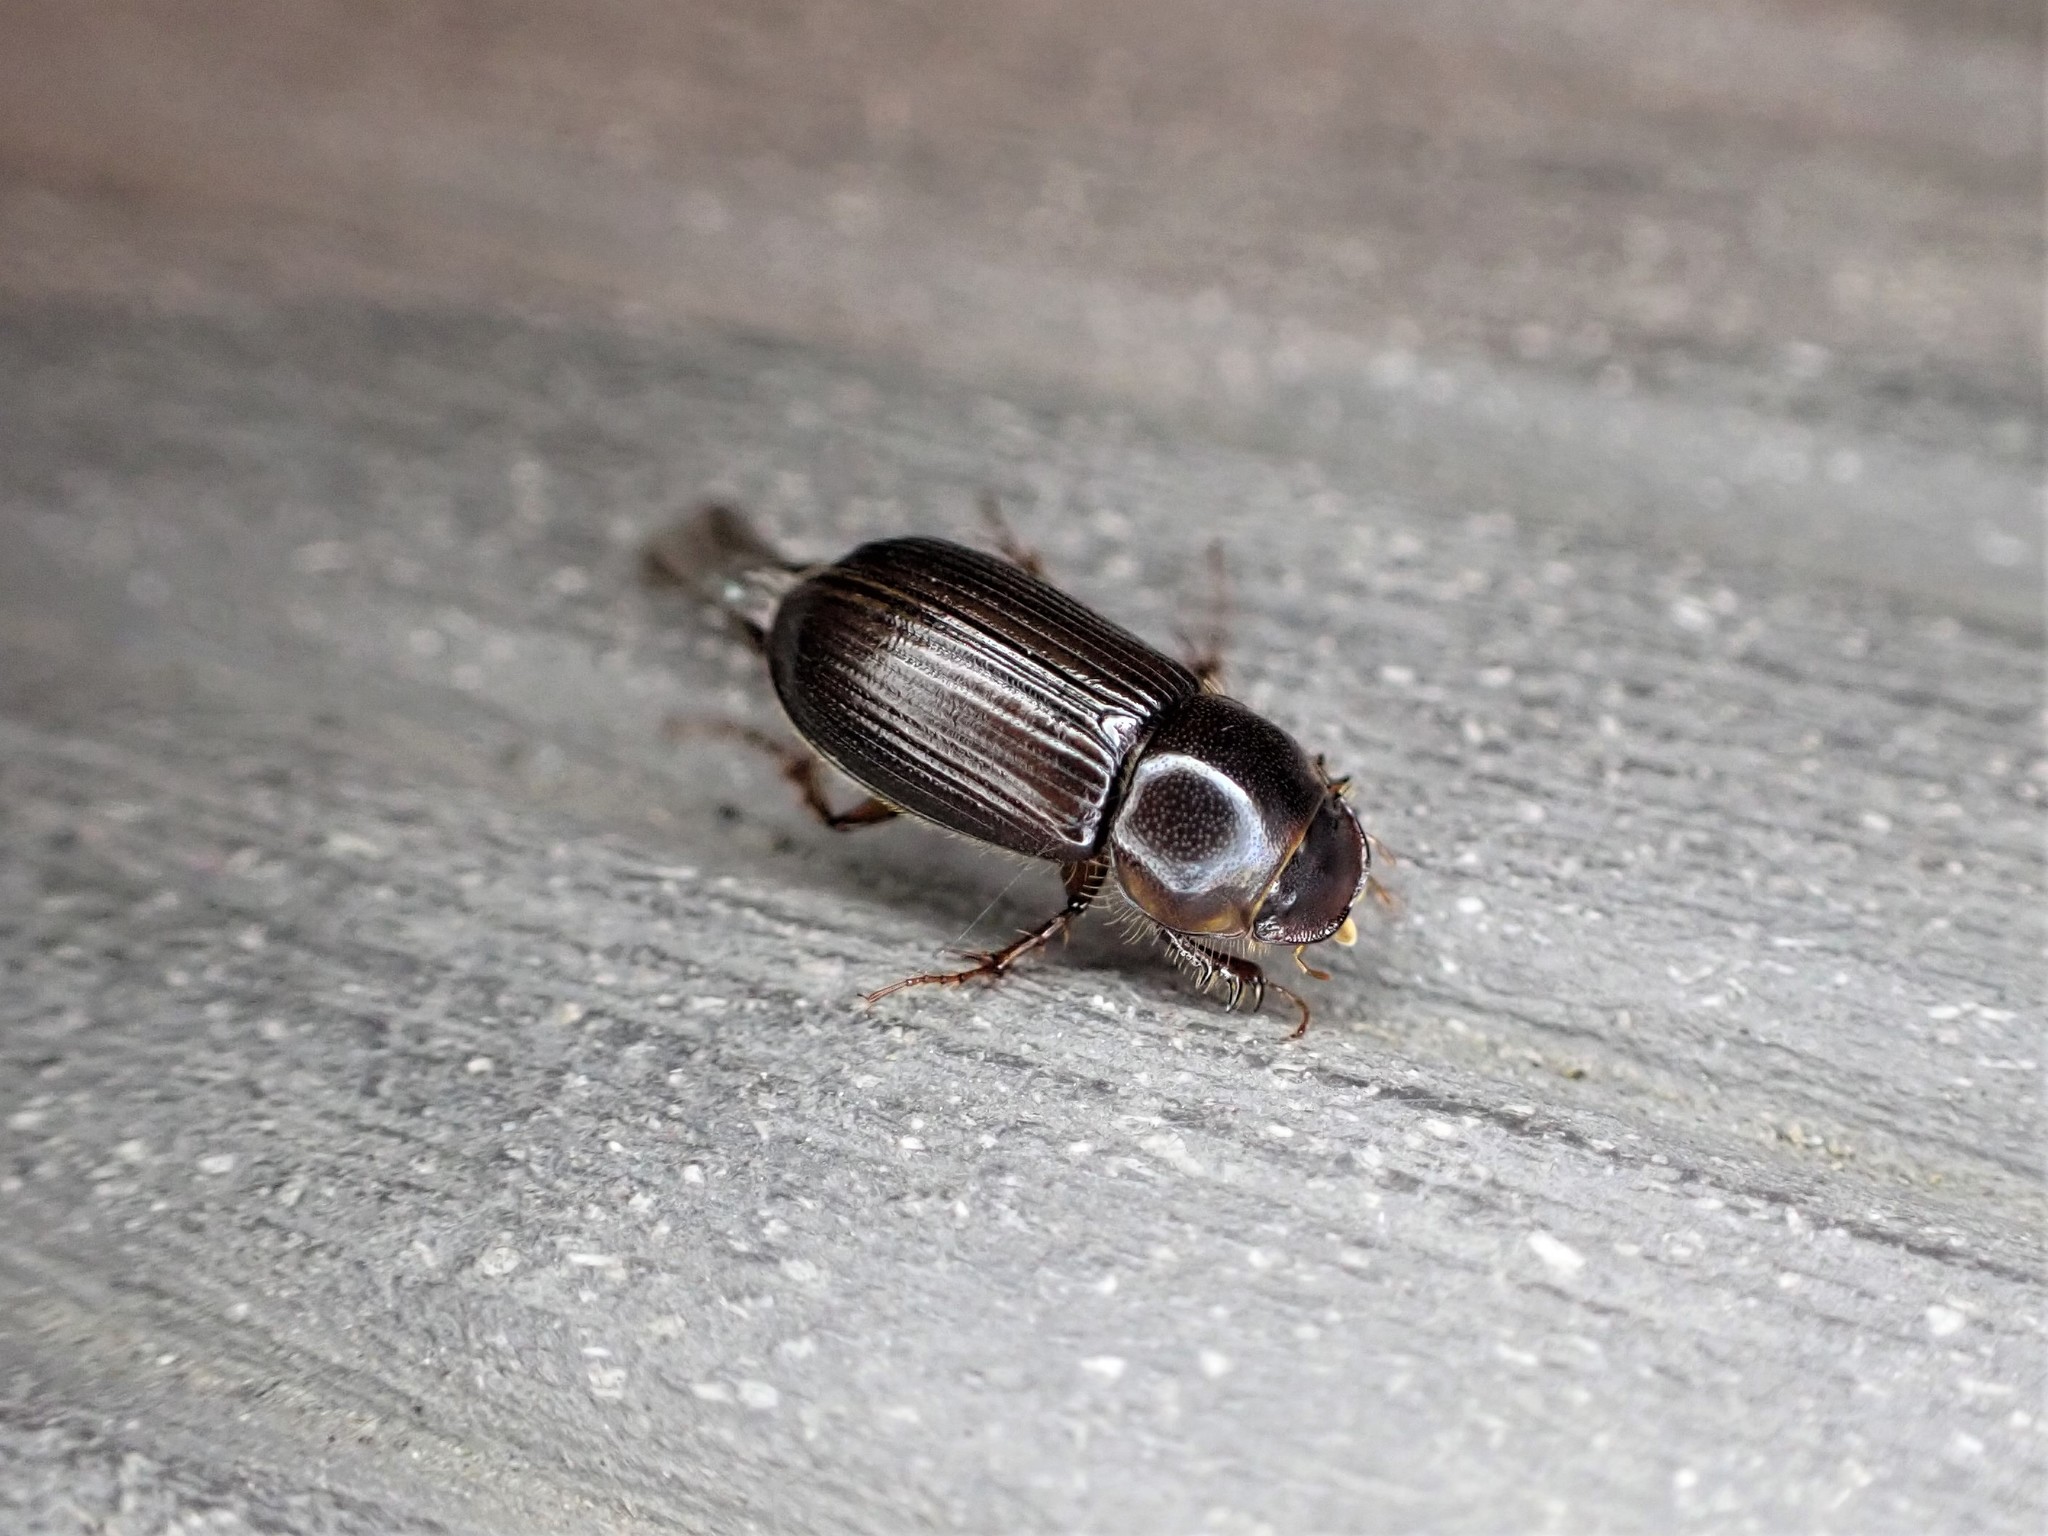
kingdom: Animalia
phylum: Arthropoda
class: Insecta
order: Coleoptera
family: Scarabaeidae
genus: Acrossidius
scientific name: Acrossidius tasmaniae
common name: Black-headed pasture cockchafer
